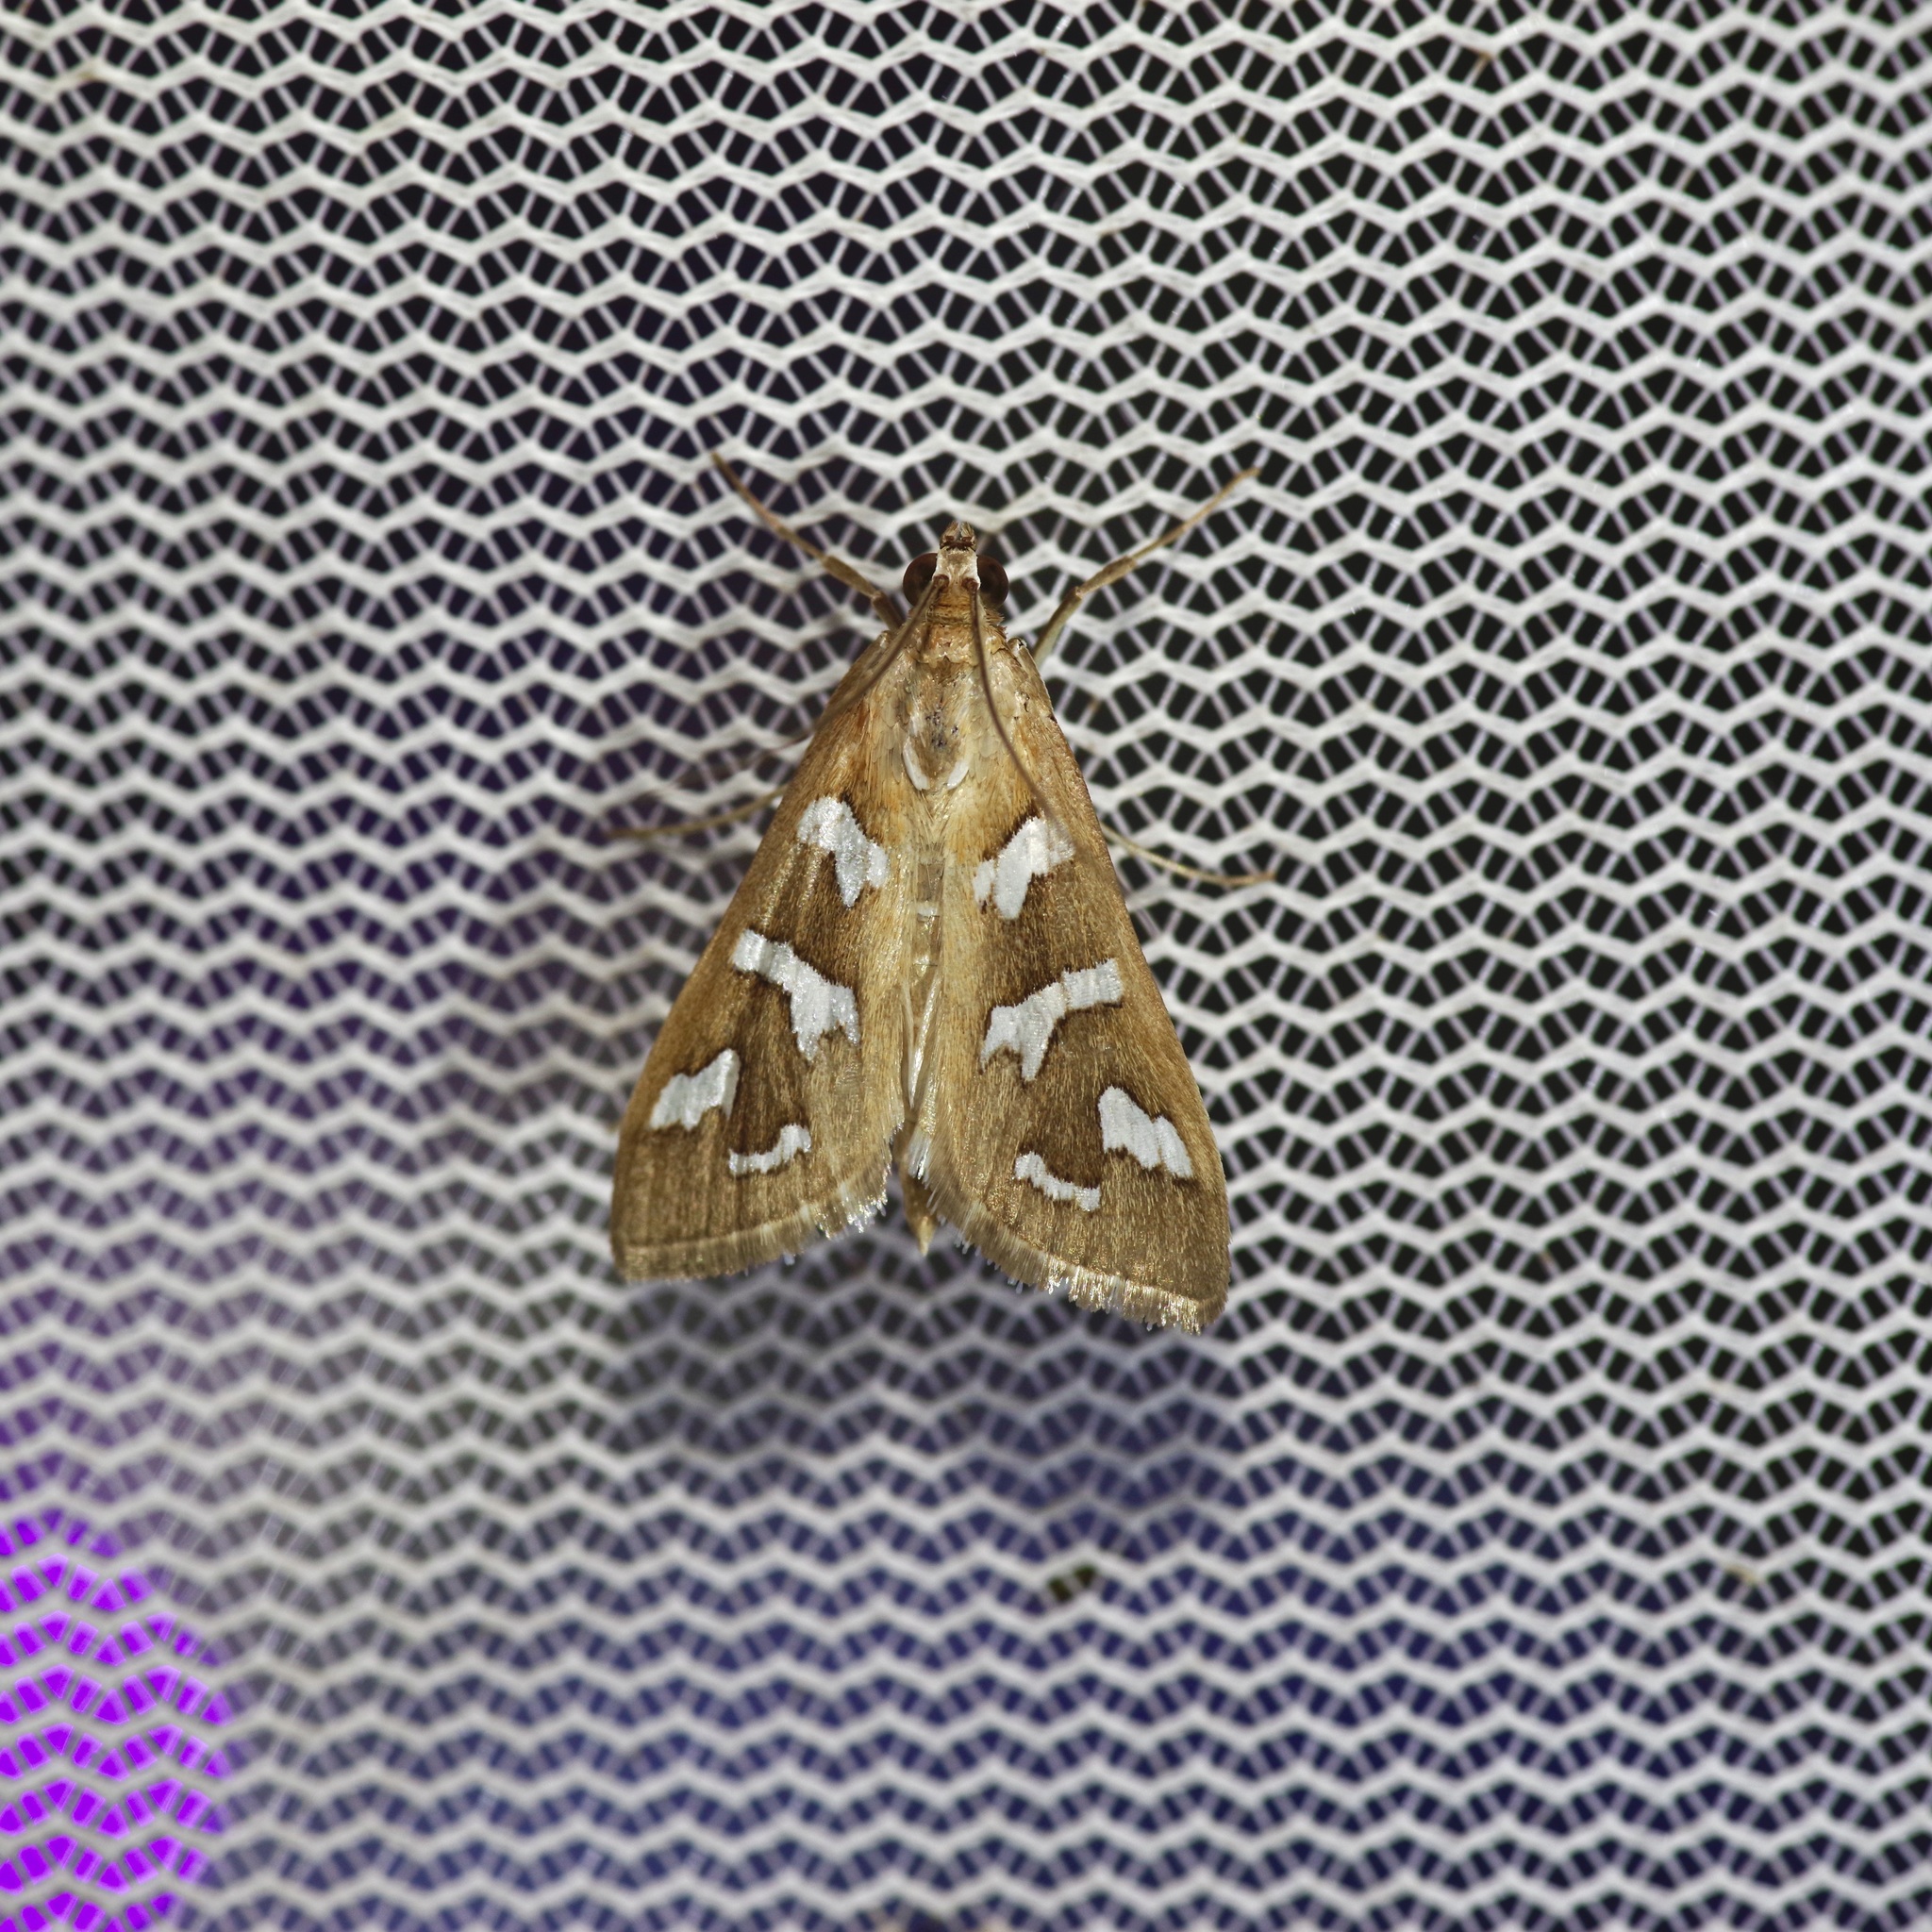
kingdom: Animalia
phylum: Arthropoda
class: Insecta
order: Lepidoptera
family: Crambidae
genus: Diastictis
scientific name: Diastictis fracturalis
